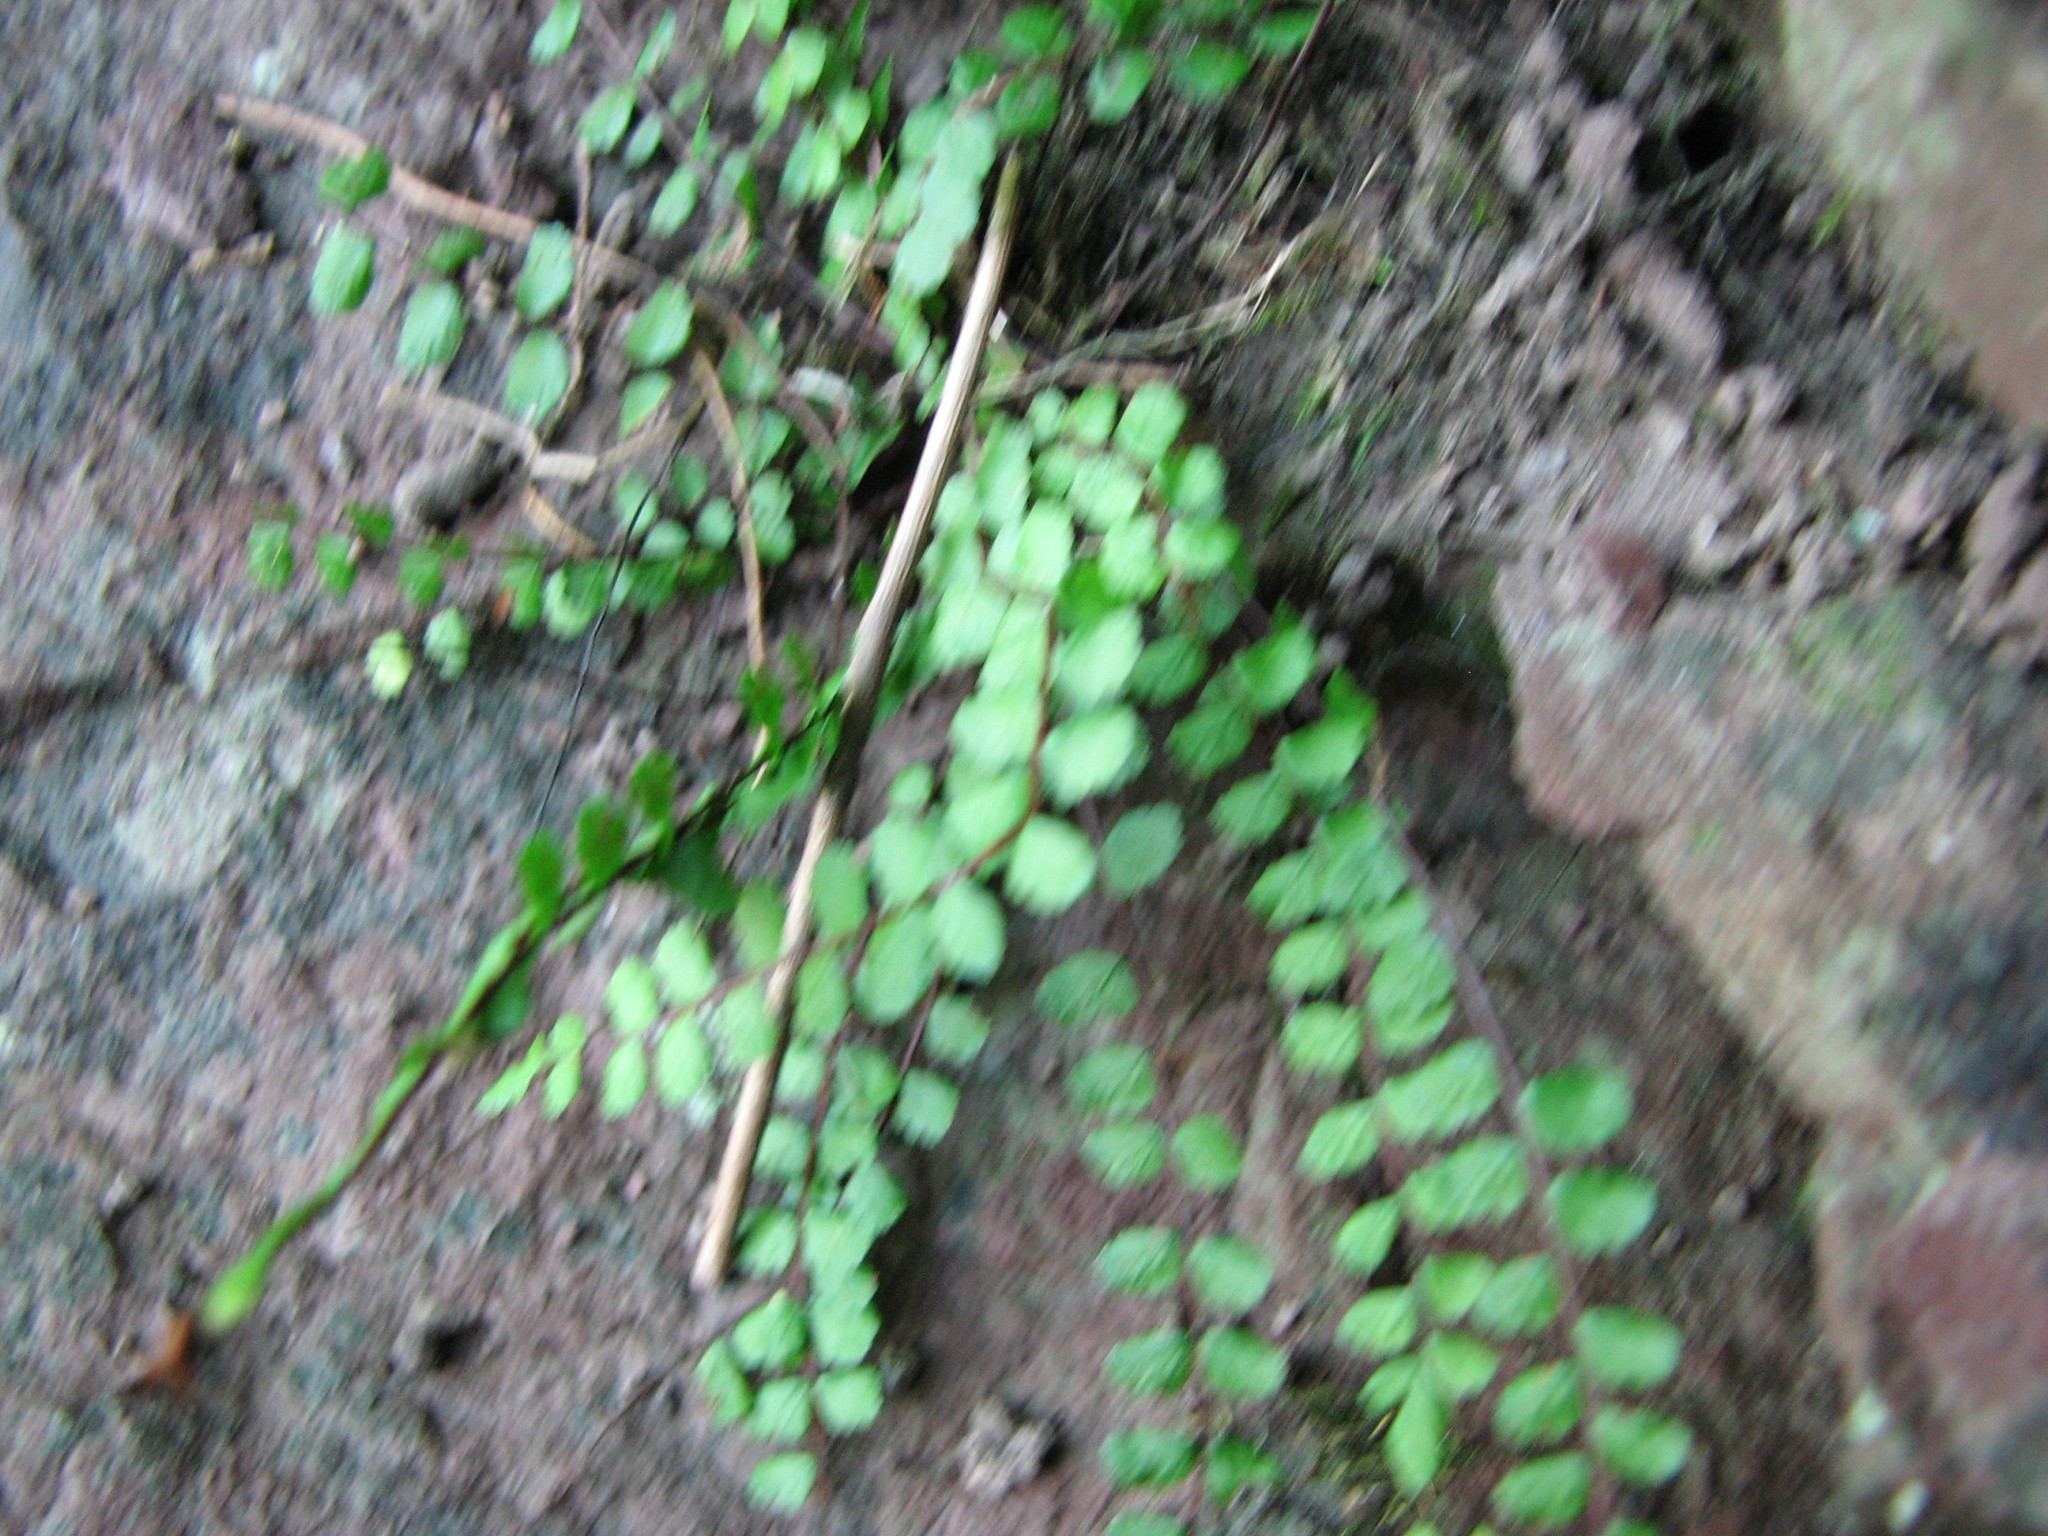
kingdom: Plantae
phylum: Tracheophyta
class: Polypodiopsida
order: Polypodiales
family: Aspleniaceae
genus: Asplenium
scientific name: Asplenium trichomanes
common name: Maidenhair spleenwort
